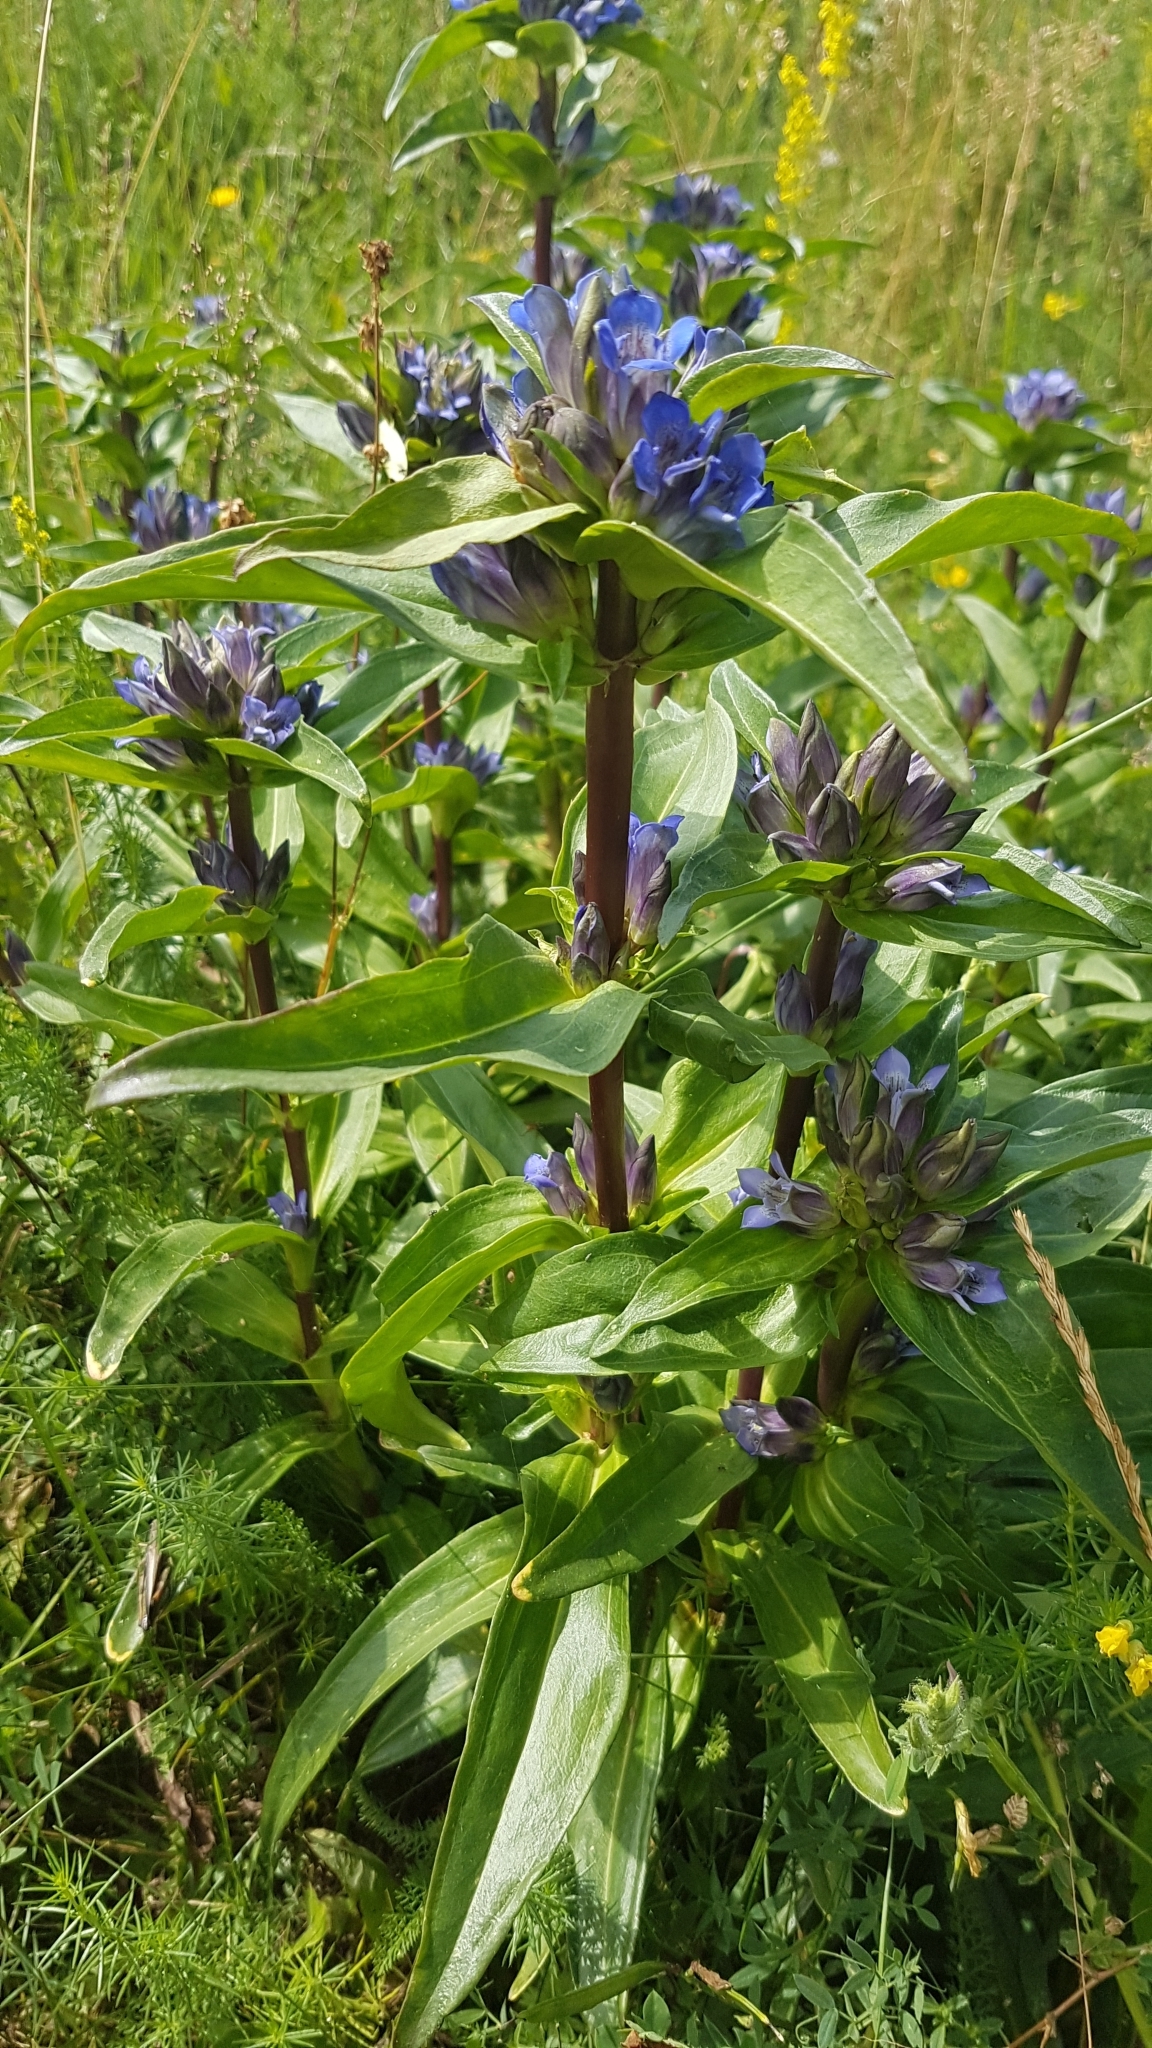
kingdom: Plantae
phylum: Tracheophyta
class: Magnoliopsida
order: Gentianales
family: Gentianaceae
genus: Gentiana
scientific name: Gentiana cruciata
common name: Cross gentian
